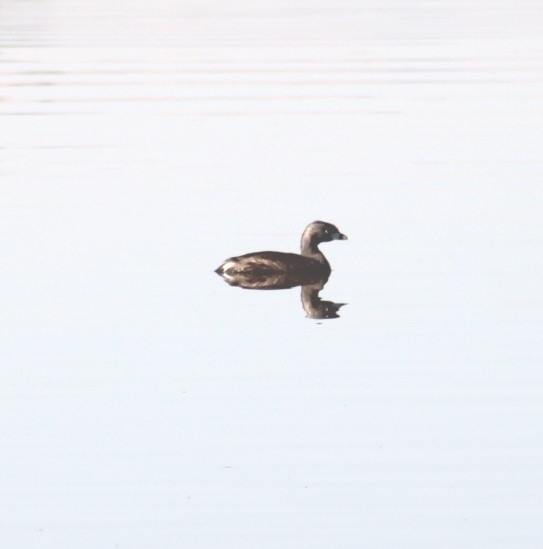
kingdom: Animalia
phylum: Chordata
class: Aves
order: Podicipediformes
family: Podicipedidae
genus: Podilymbus
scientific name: Podilymbus podiceps
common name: Pied-billed grebe
